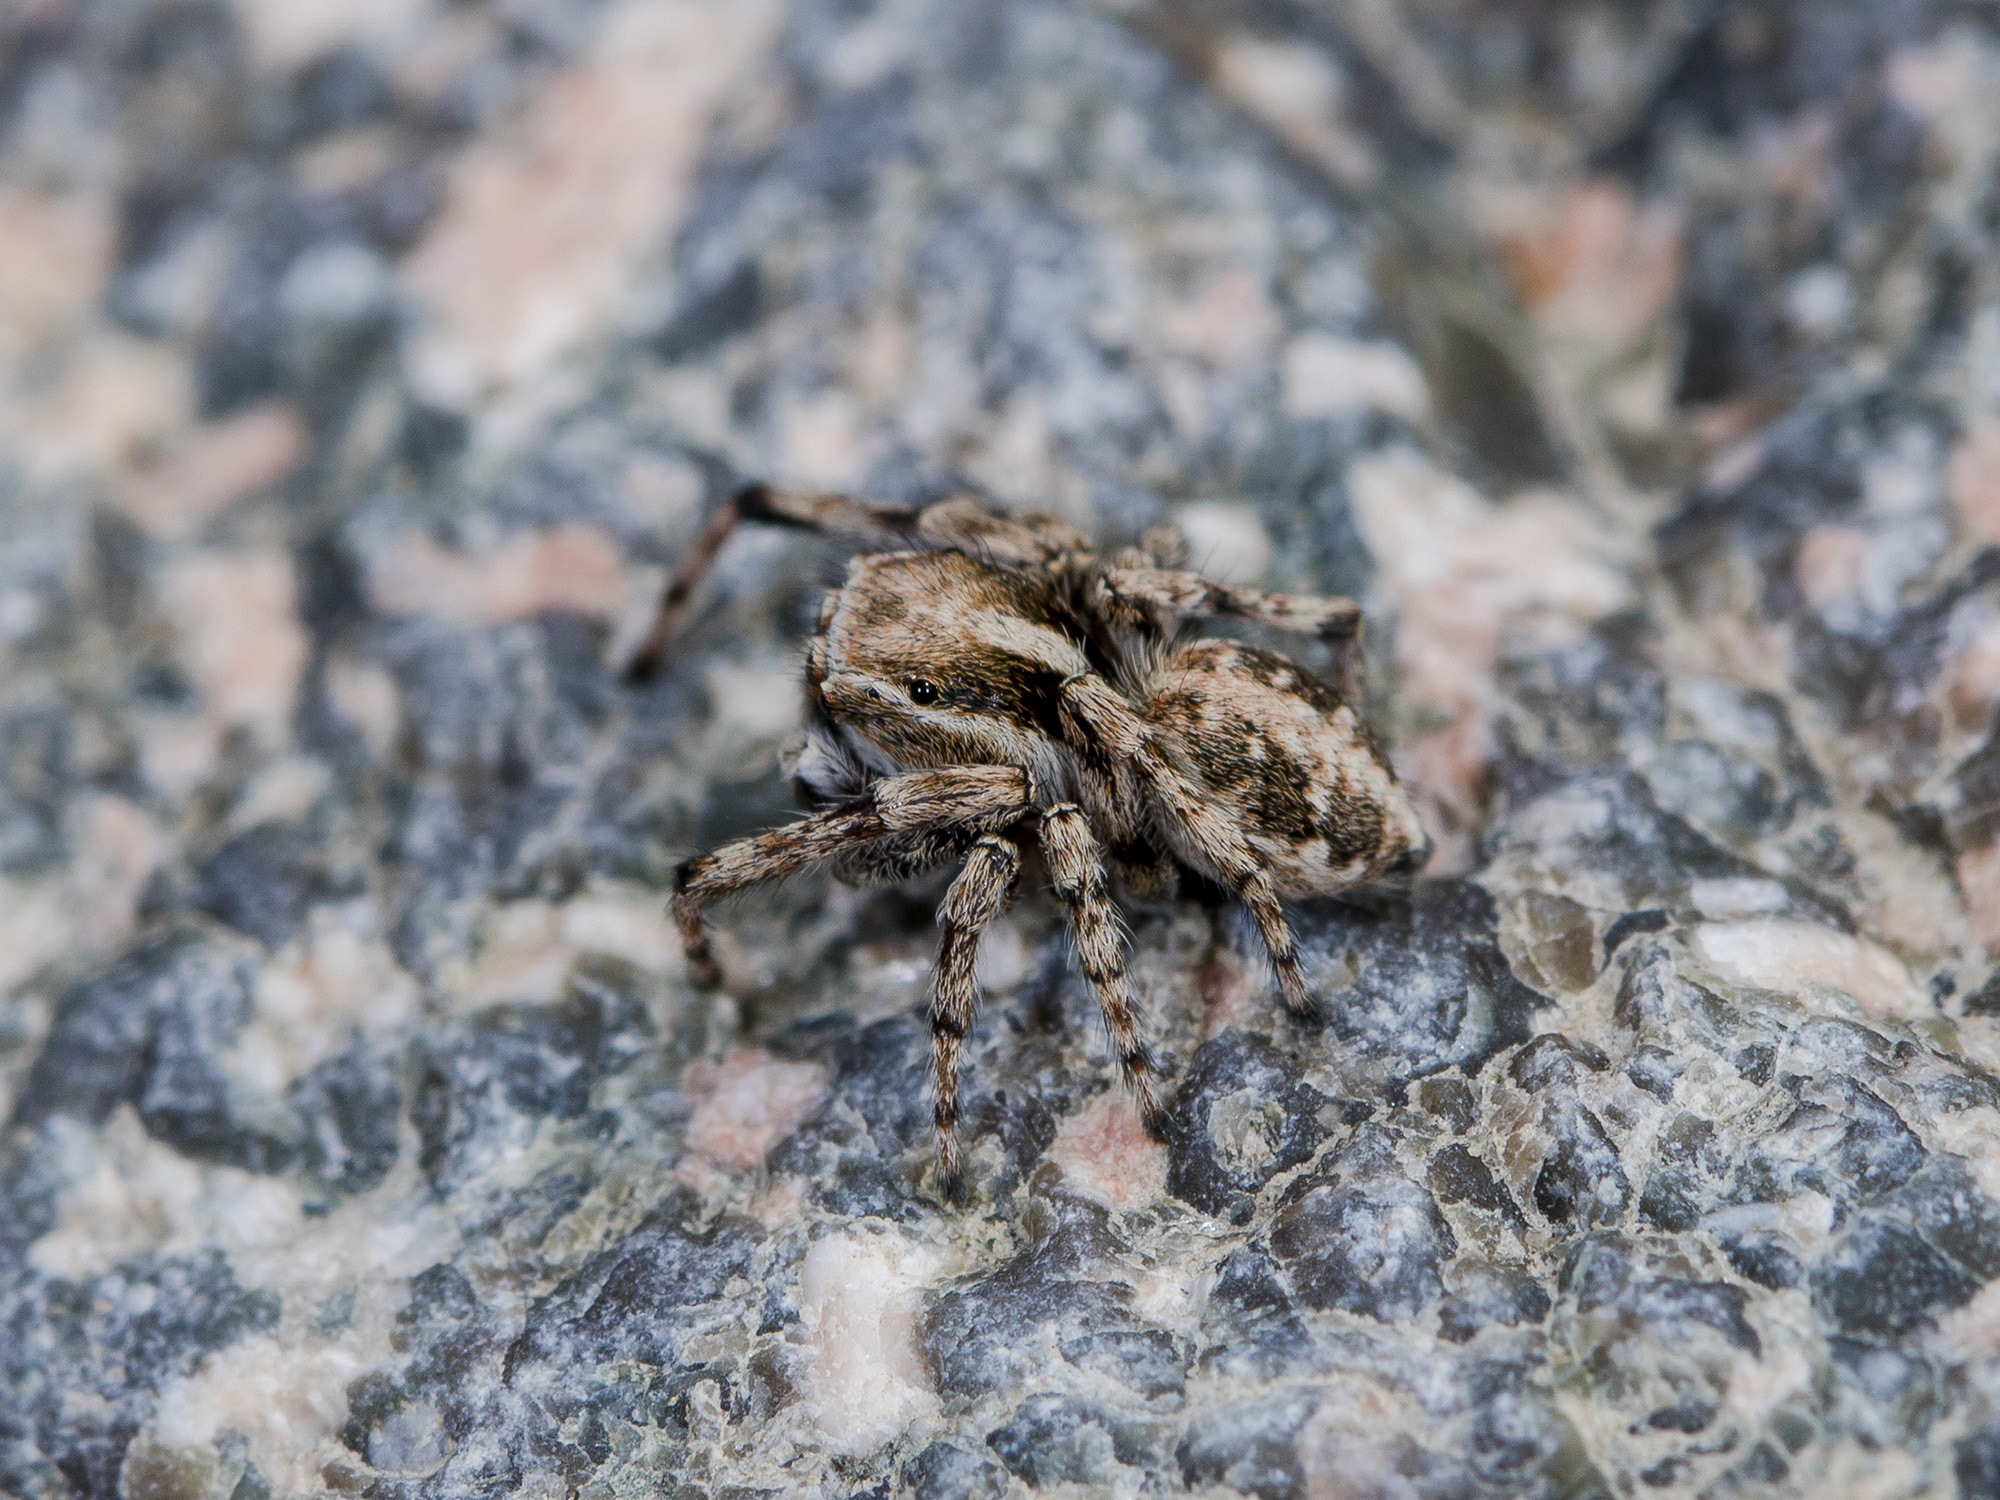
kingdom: Animalia
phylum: Arthropoda
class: Arachnida
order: Araneae
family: Salticidae
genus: Attulus
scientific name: Attulus avocator
